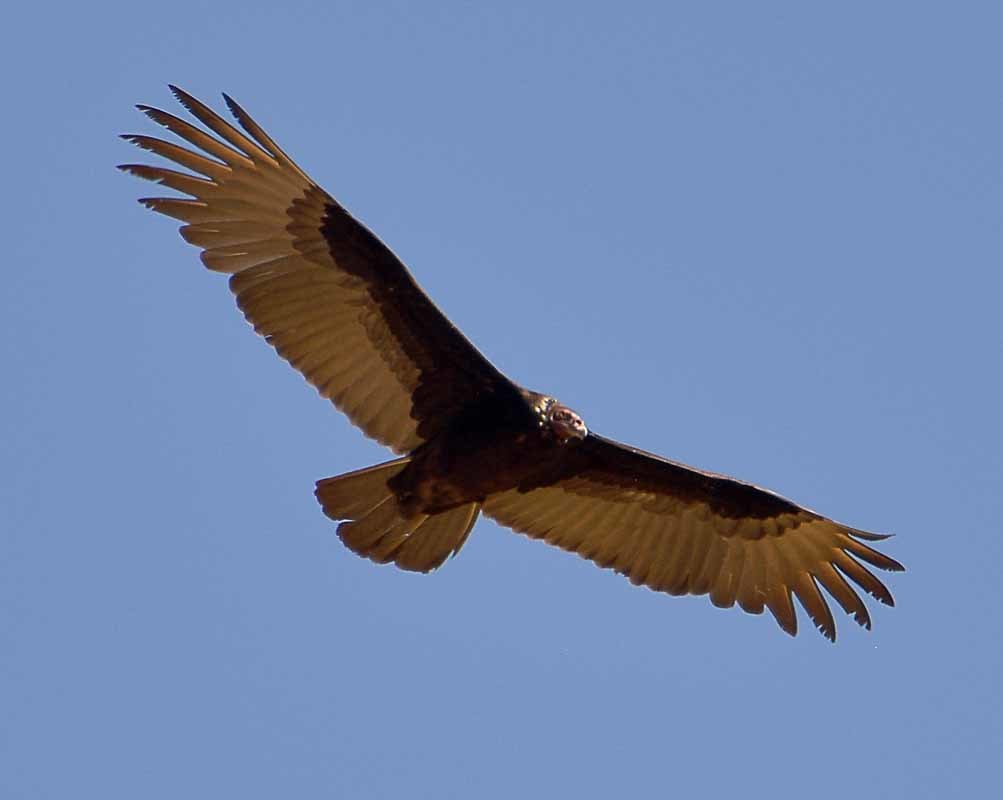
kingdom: Animalia
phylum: Chordata
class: Aves
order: Accipitriformes
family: Cathartidae
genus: Cathartes
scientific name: Cathartes aura
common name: Turkey vulture
